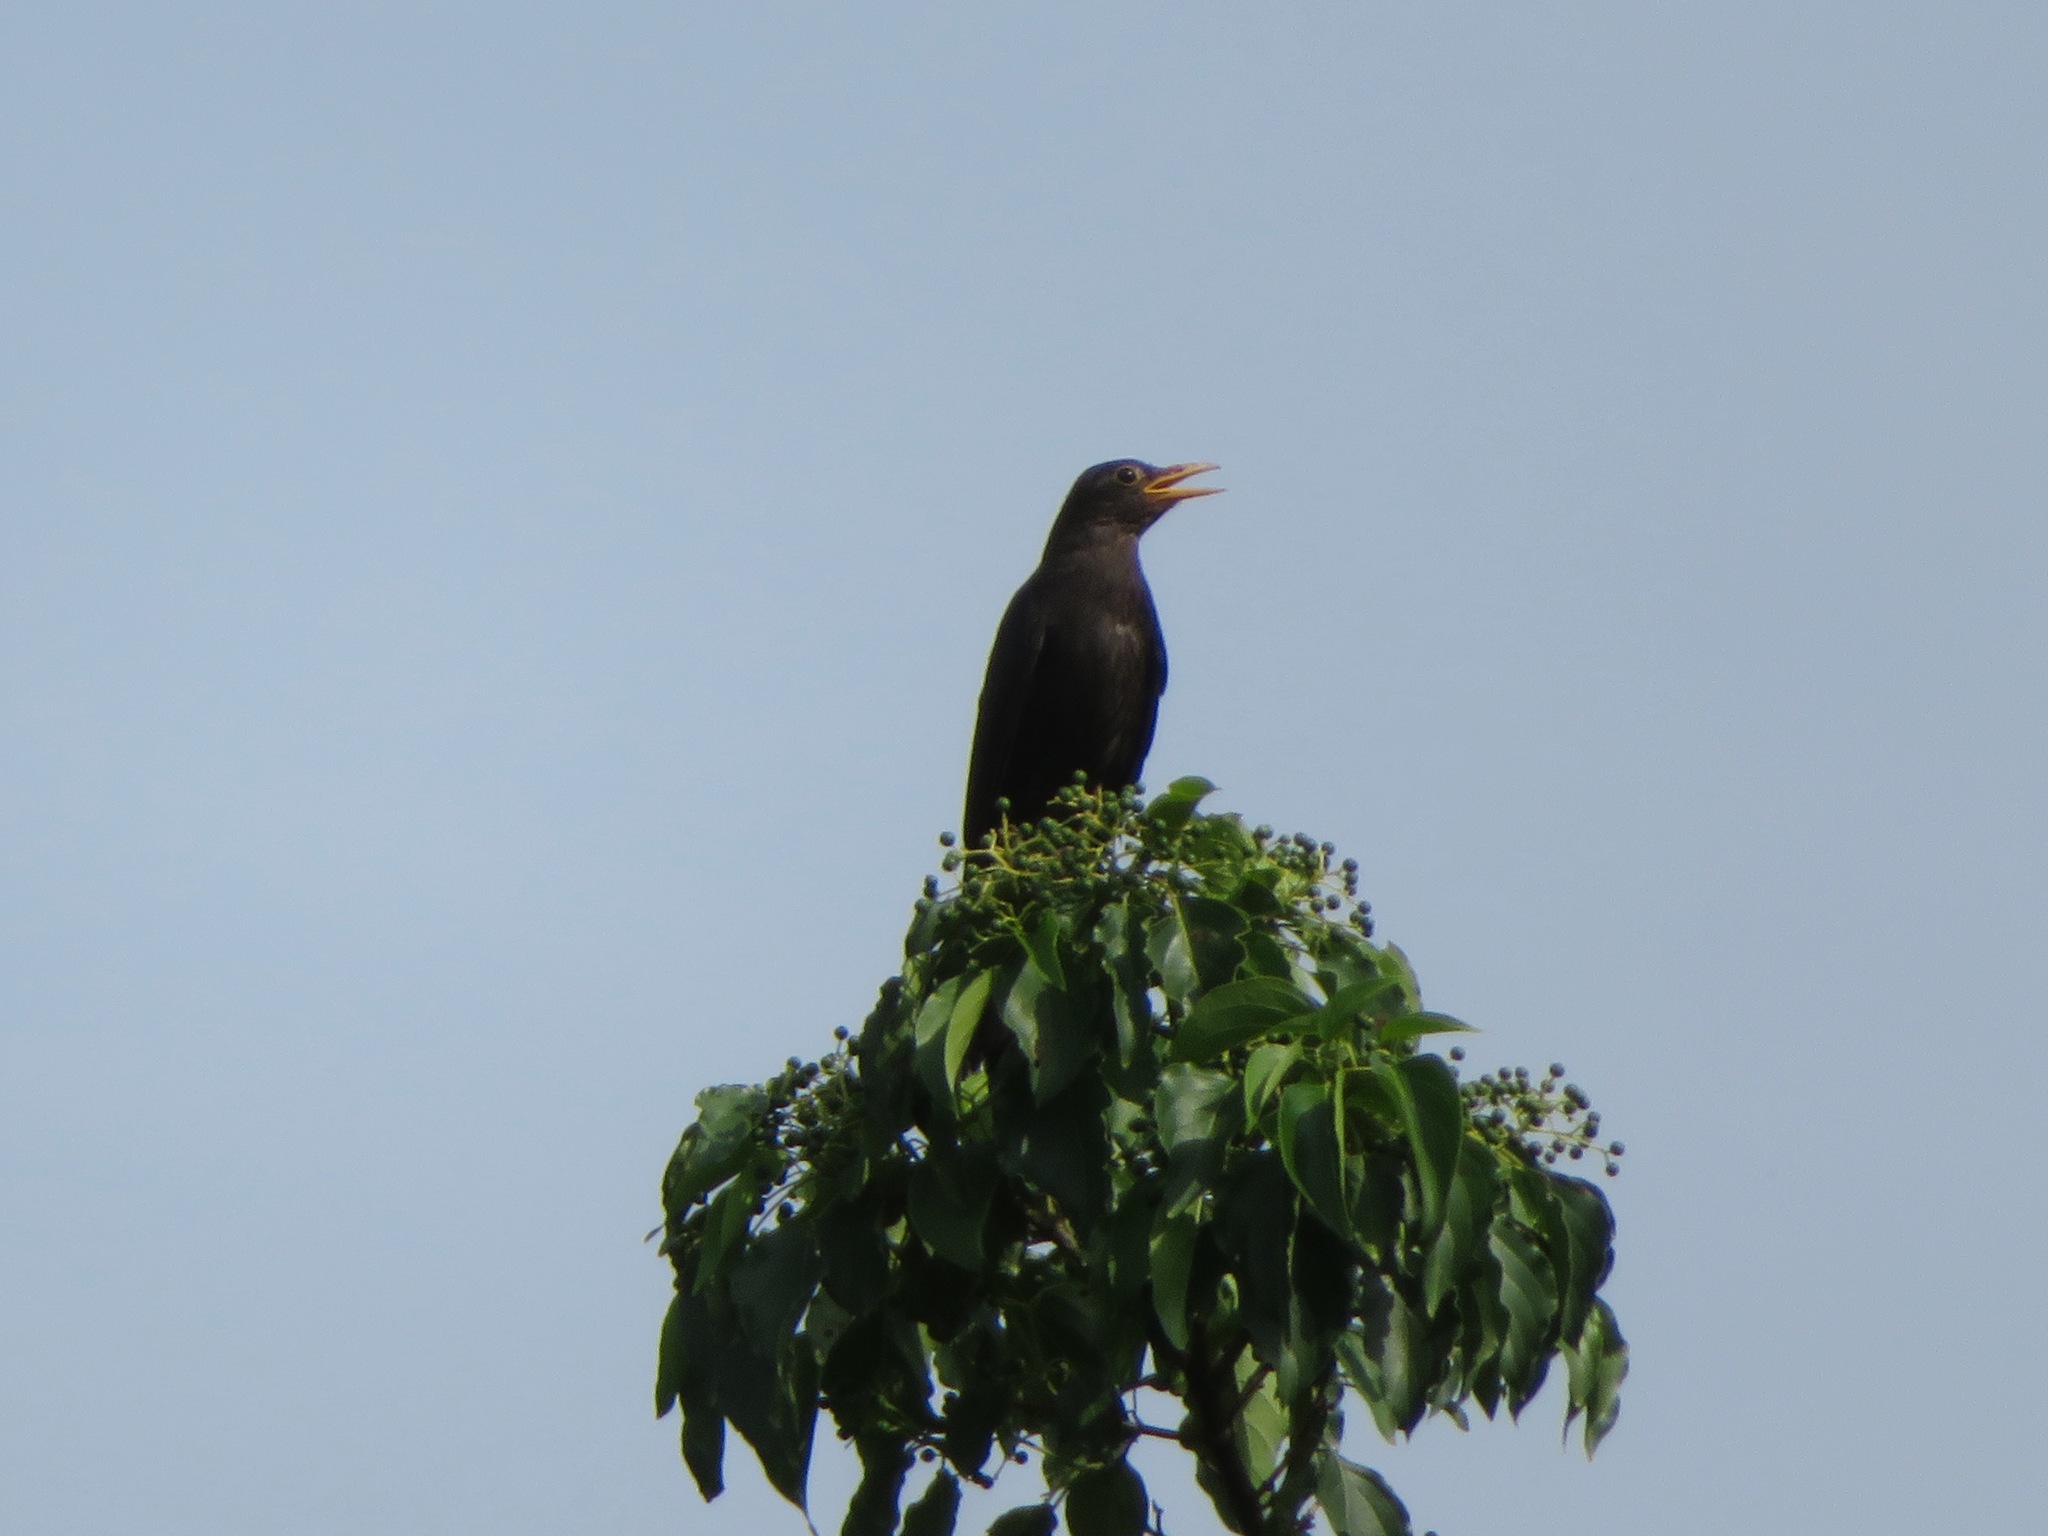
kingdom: Animalia
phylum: Chordata
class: Aves
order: Passeriformes
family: Turdidae
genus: Turdus
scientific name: Turdus mandarinus
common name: Chinese blackbird
